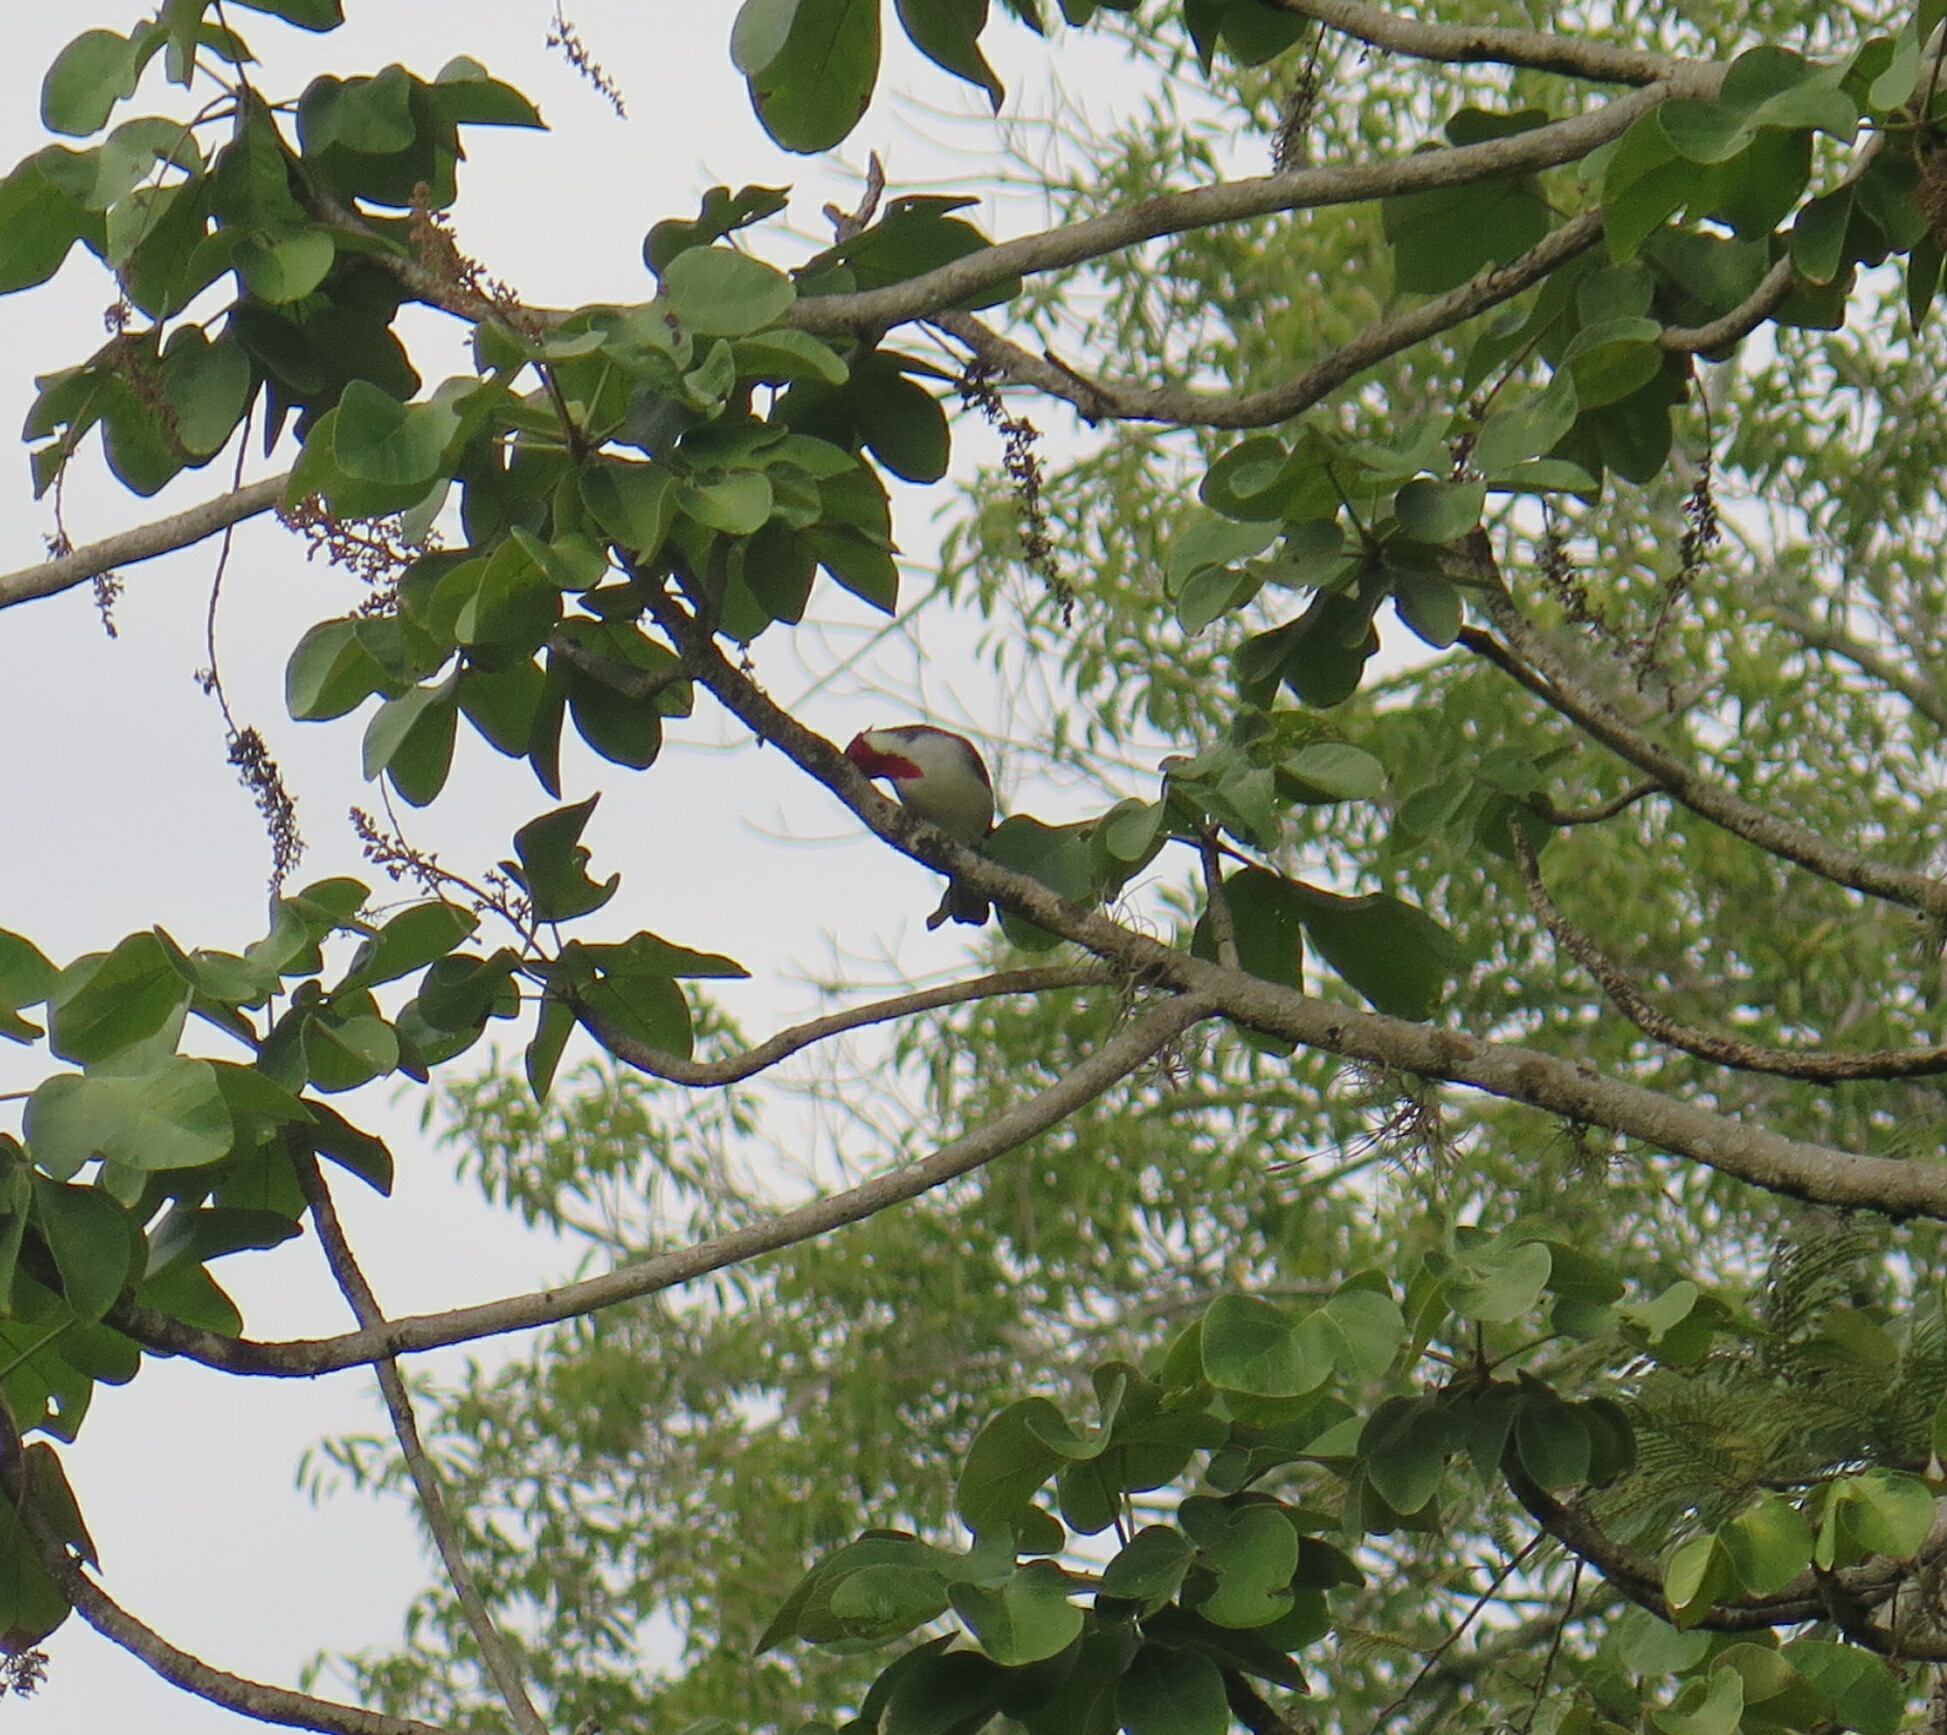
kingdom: Animalia
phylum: Chordata
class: Aves
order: Passeriformes
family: Thraupidae
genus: Paroaria
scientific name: Paroaria coronata
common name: Red-crested cardinal
